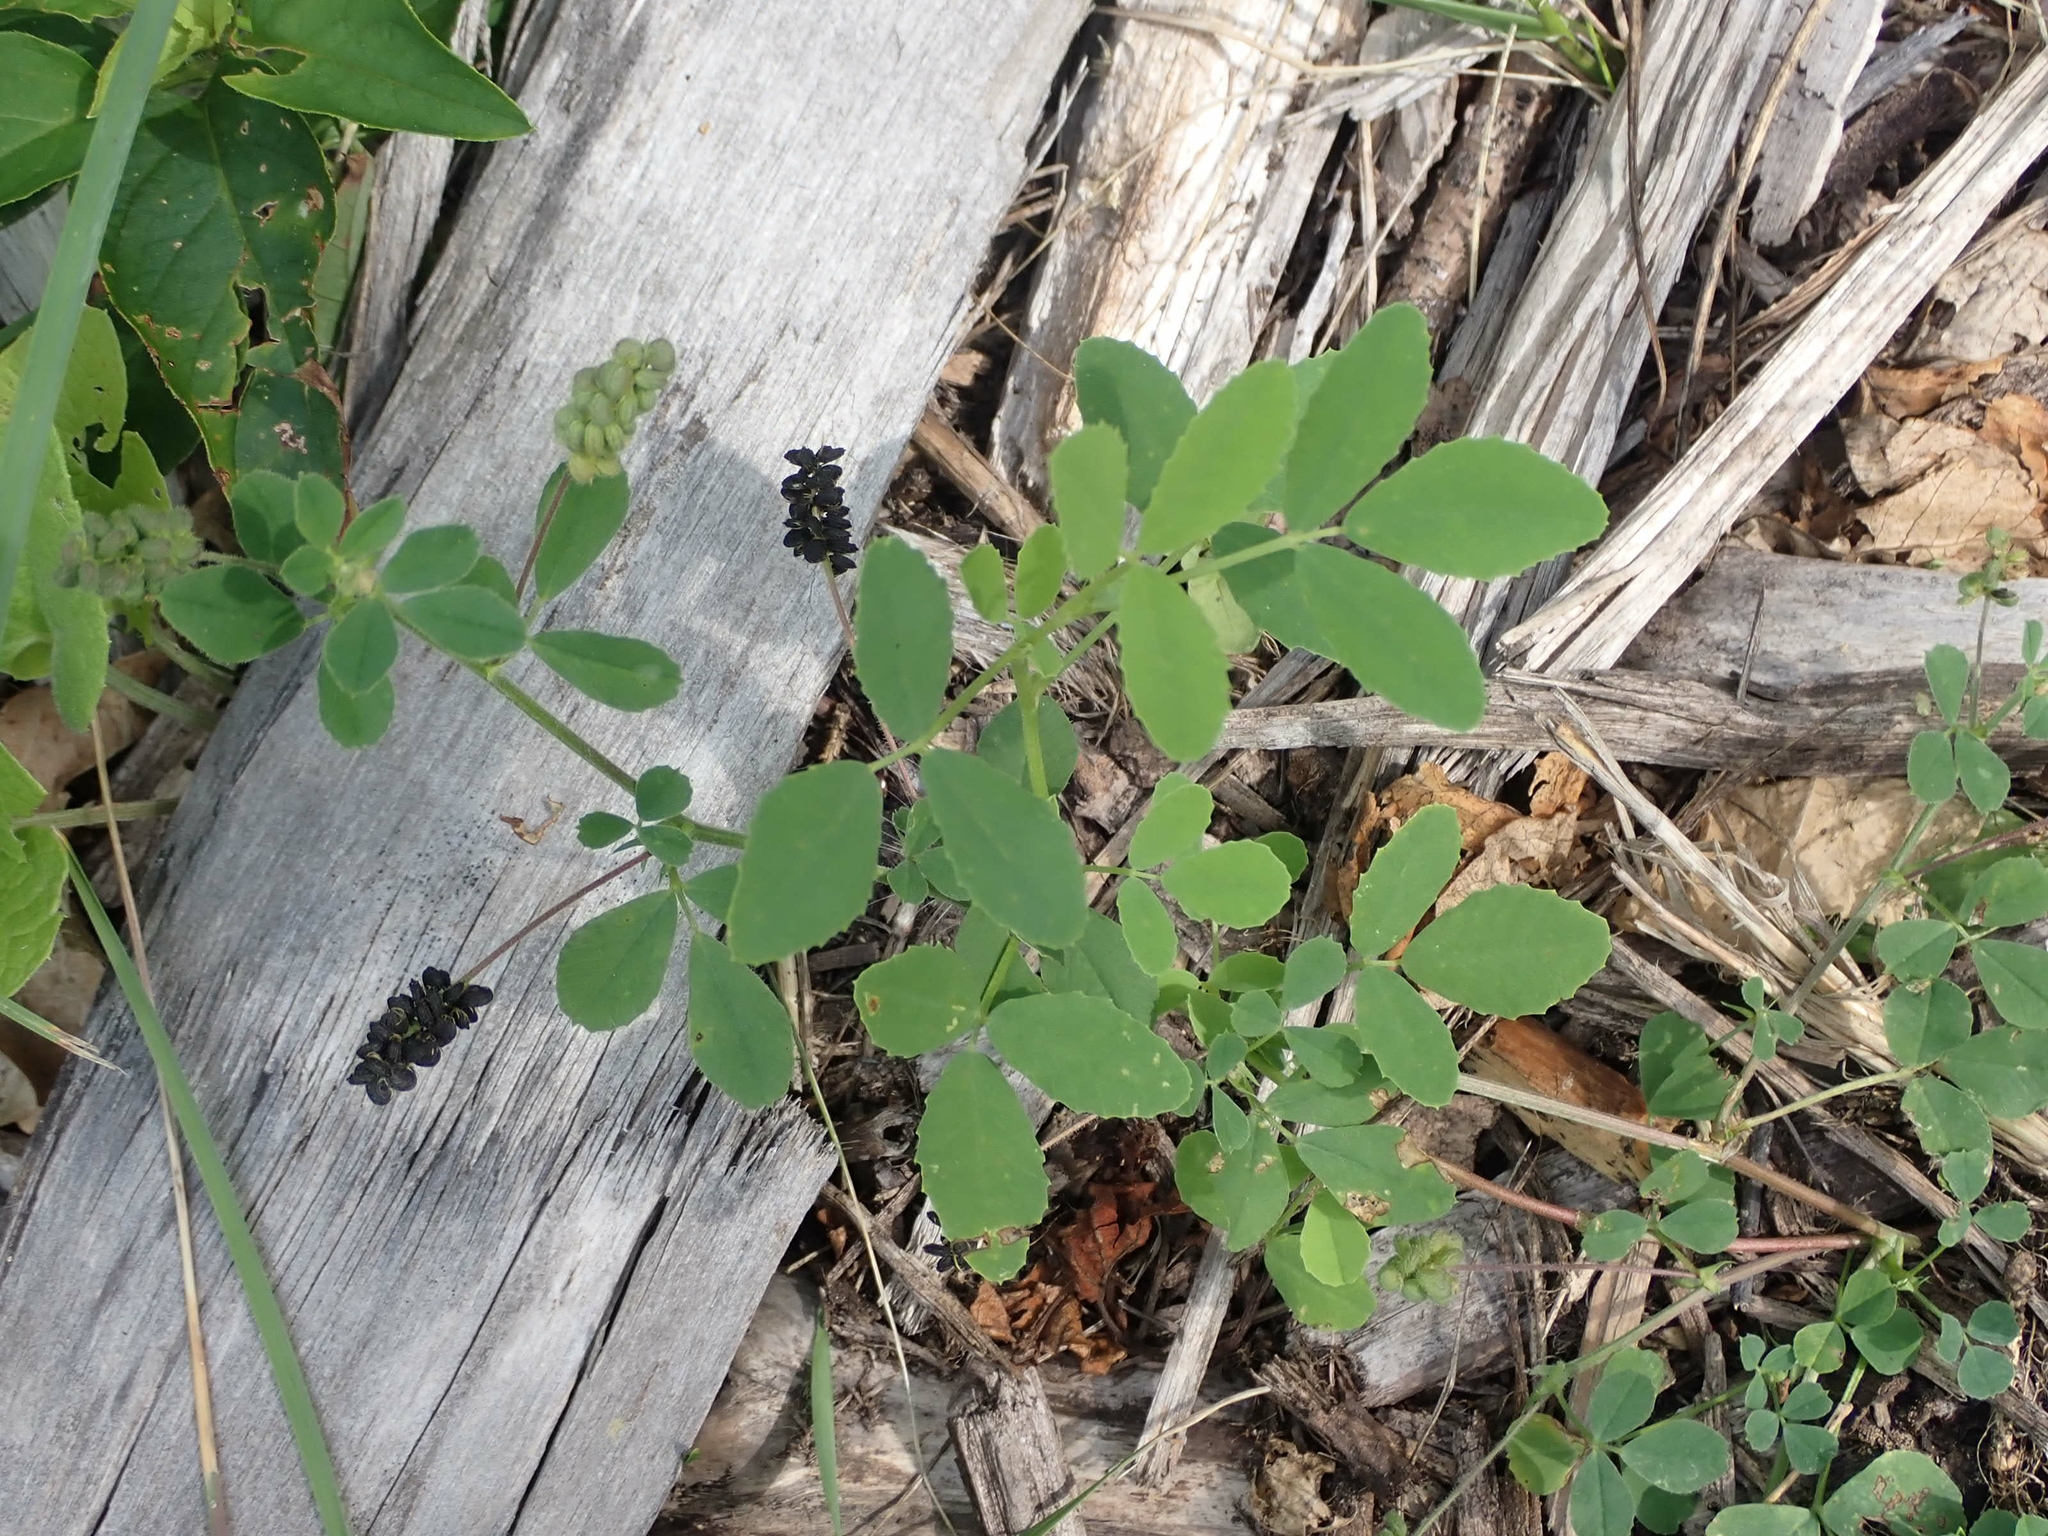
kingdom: Plantae
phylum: Tracheophyta
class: Magnoliopsida
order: Fabales
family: Fabaceae
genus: Medicago
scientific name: Medicago lupulina
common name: Black medick
